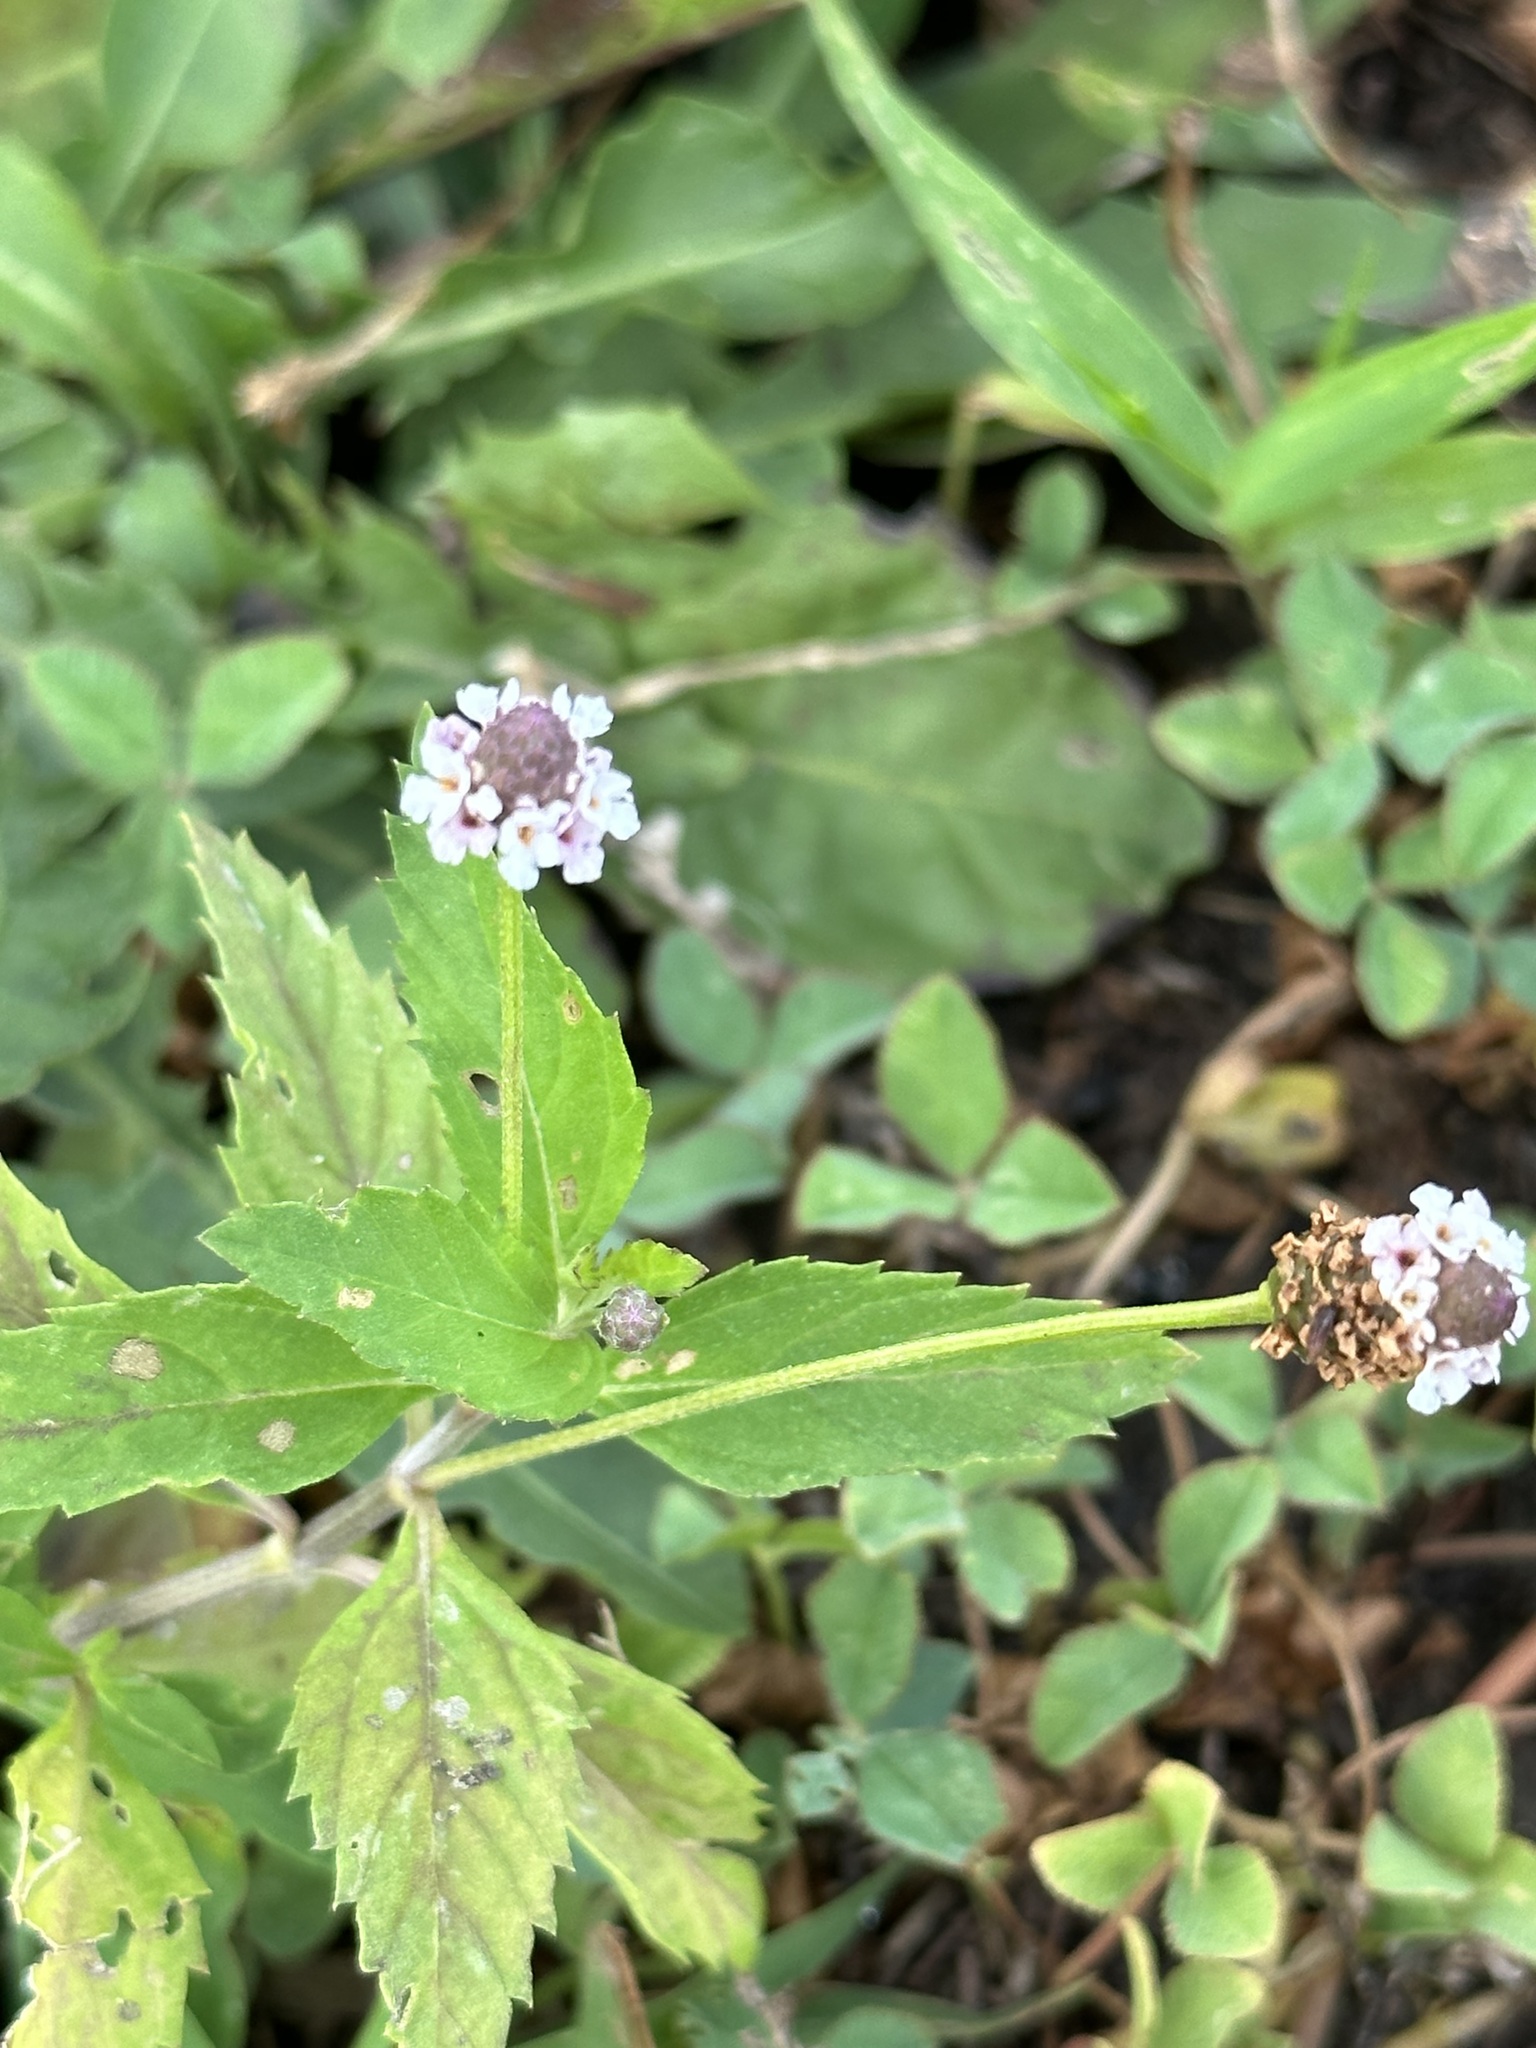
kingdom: Plantae
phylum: Tracheophyta
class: Magnoliopsida
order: Lamiales
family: Verbenaceae
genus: Phyla
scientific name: Phyla lanceolata
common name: Northern fogfruit
